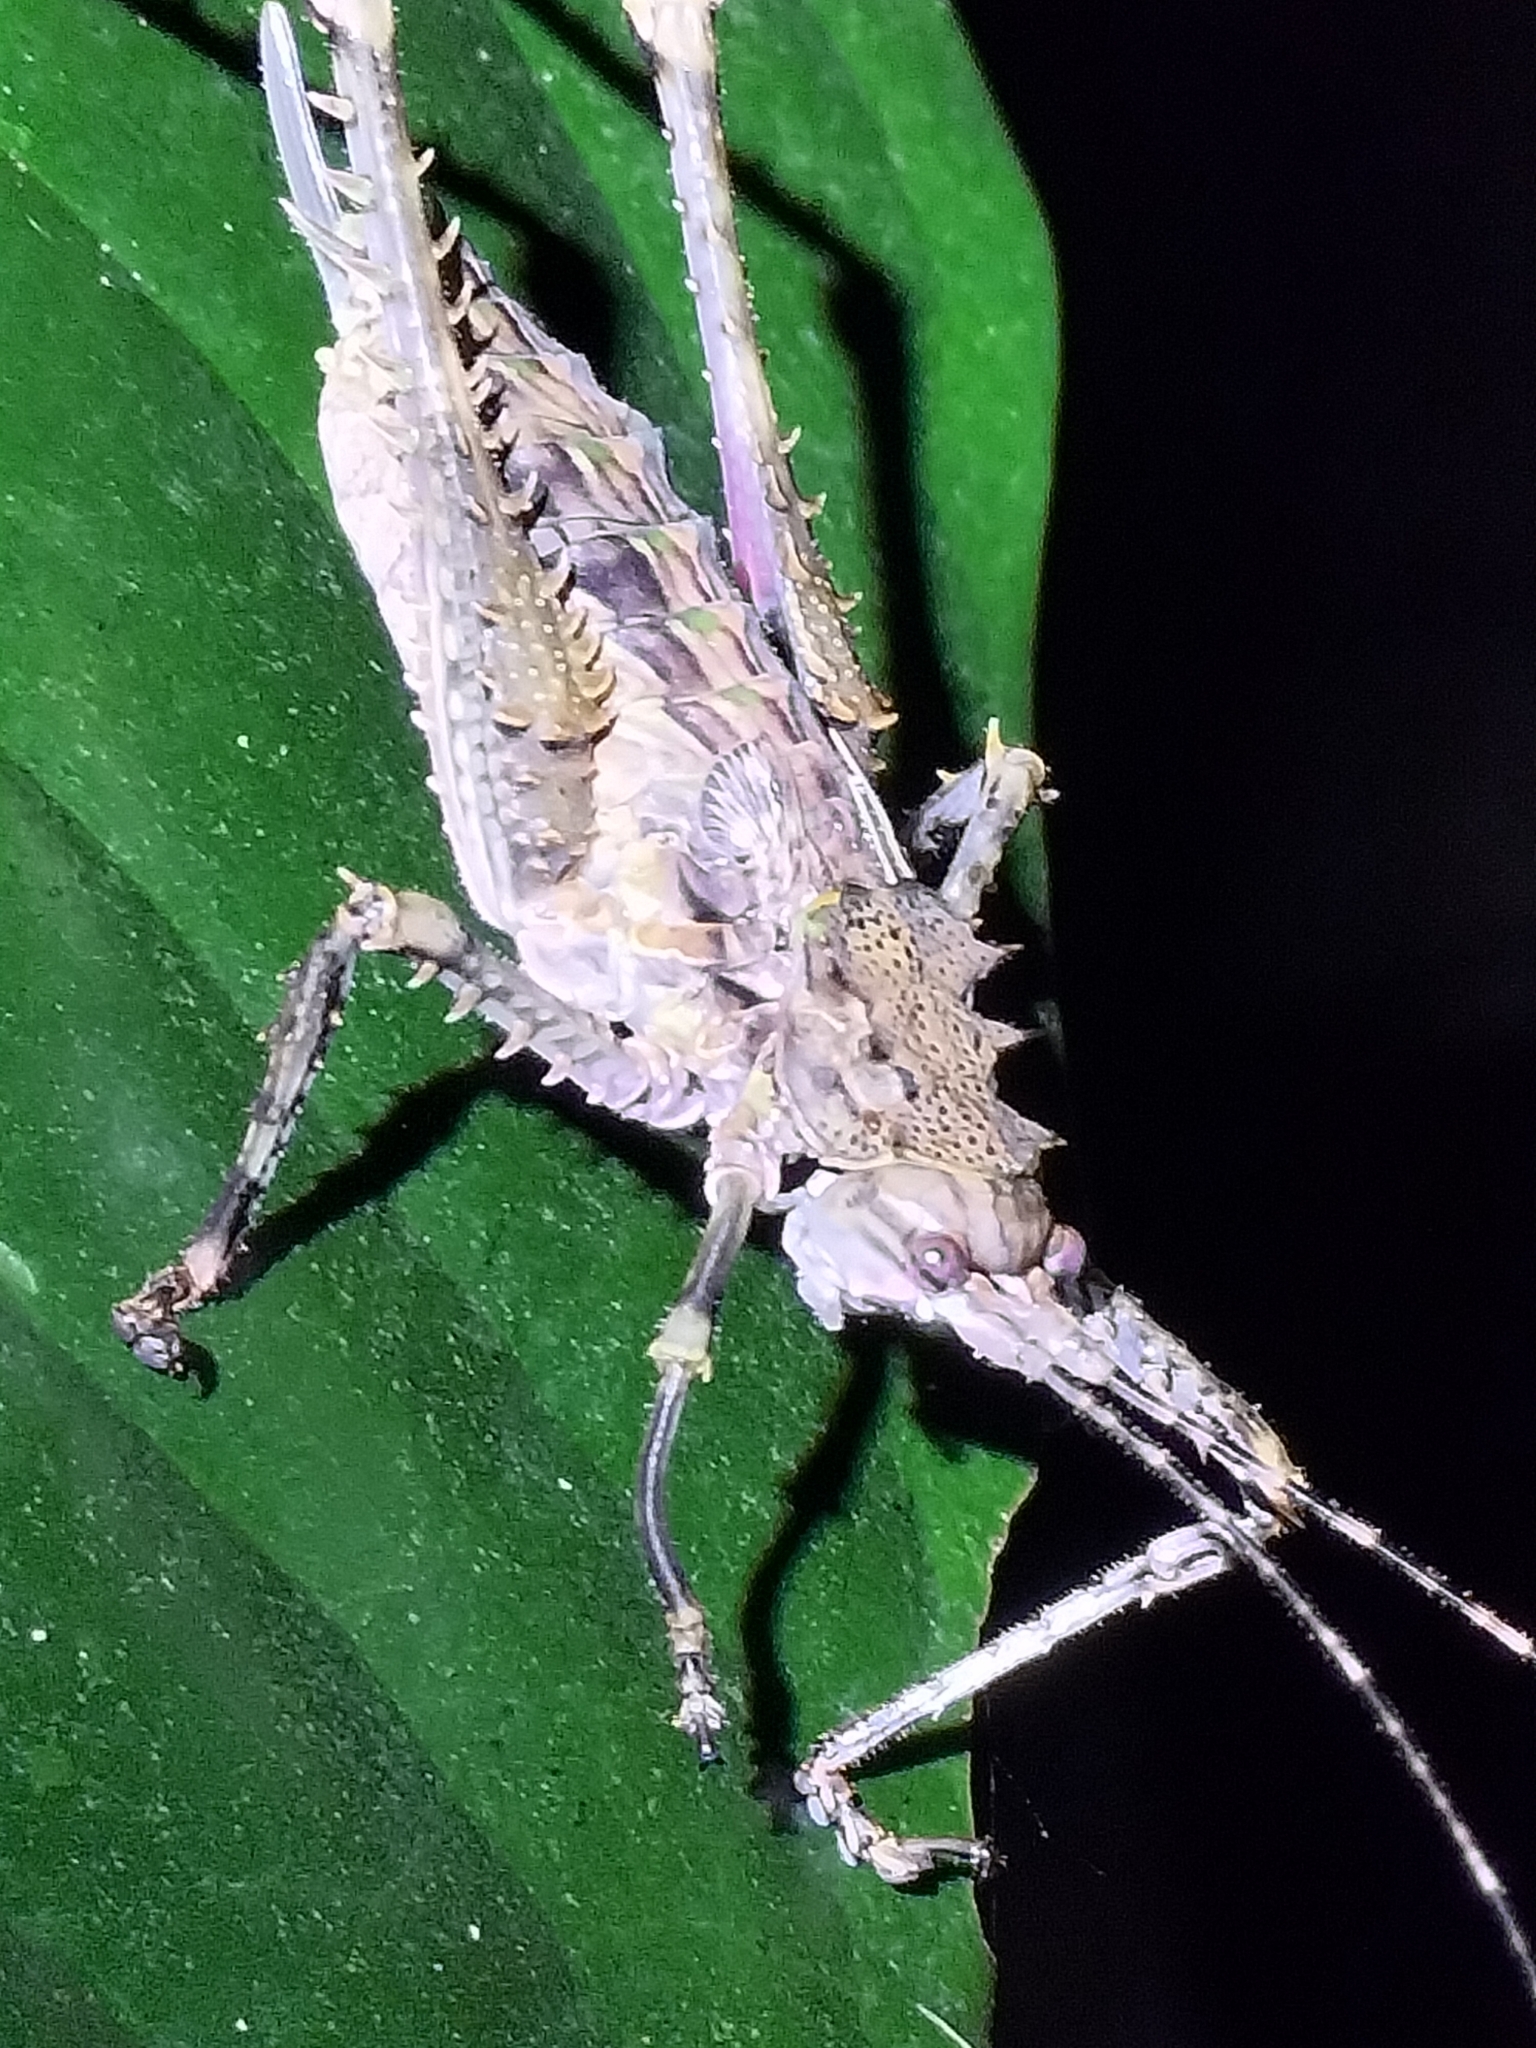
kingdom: Animalia
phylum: Arthropoda
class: Insecta
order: Orthoptera
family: Tettigoniidae
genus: Phricta
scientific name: Phricta spinosa
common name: Giant spiny forest katydid
